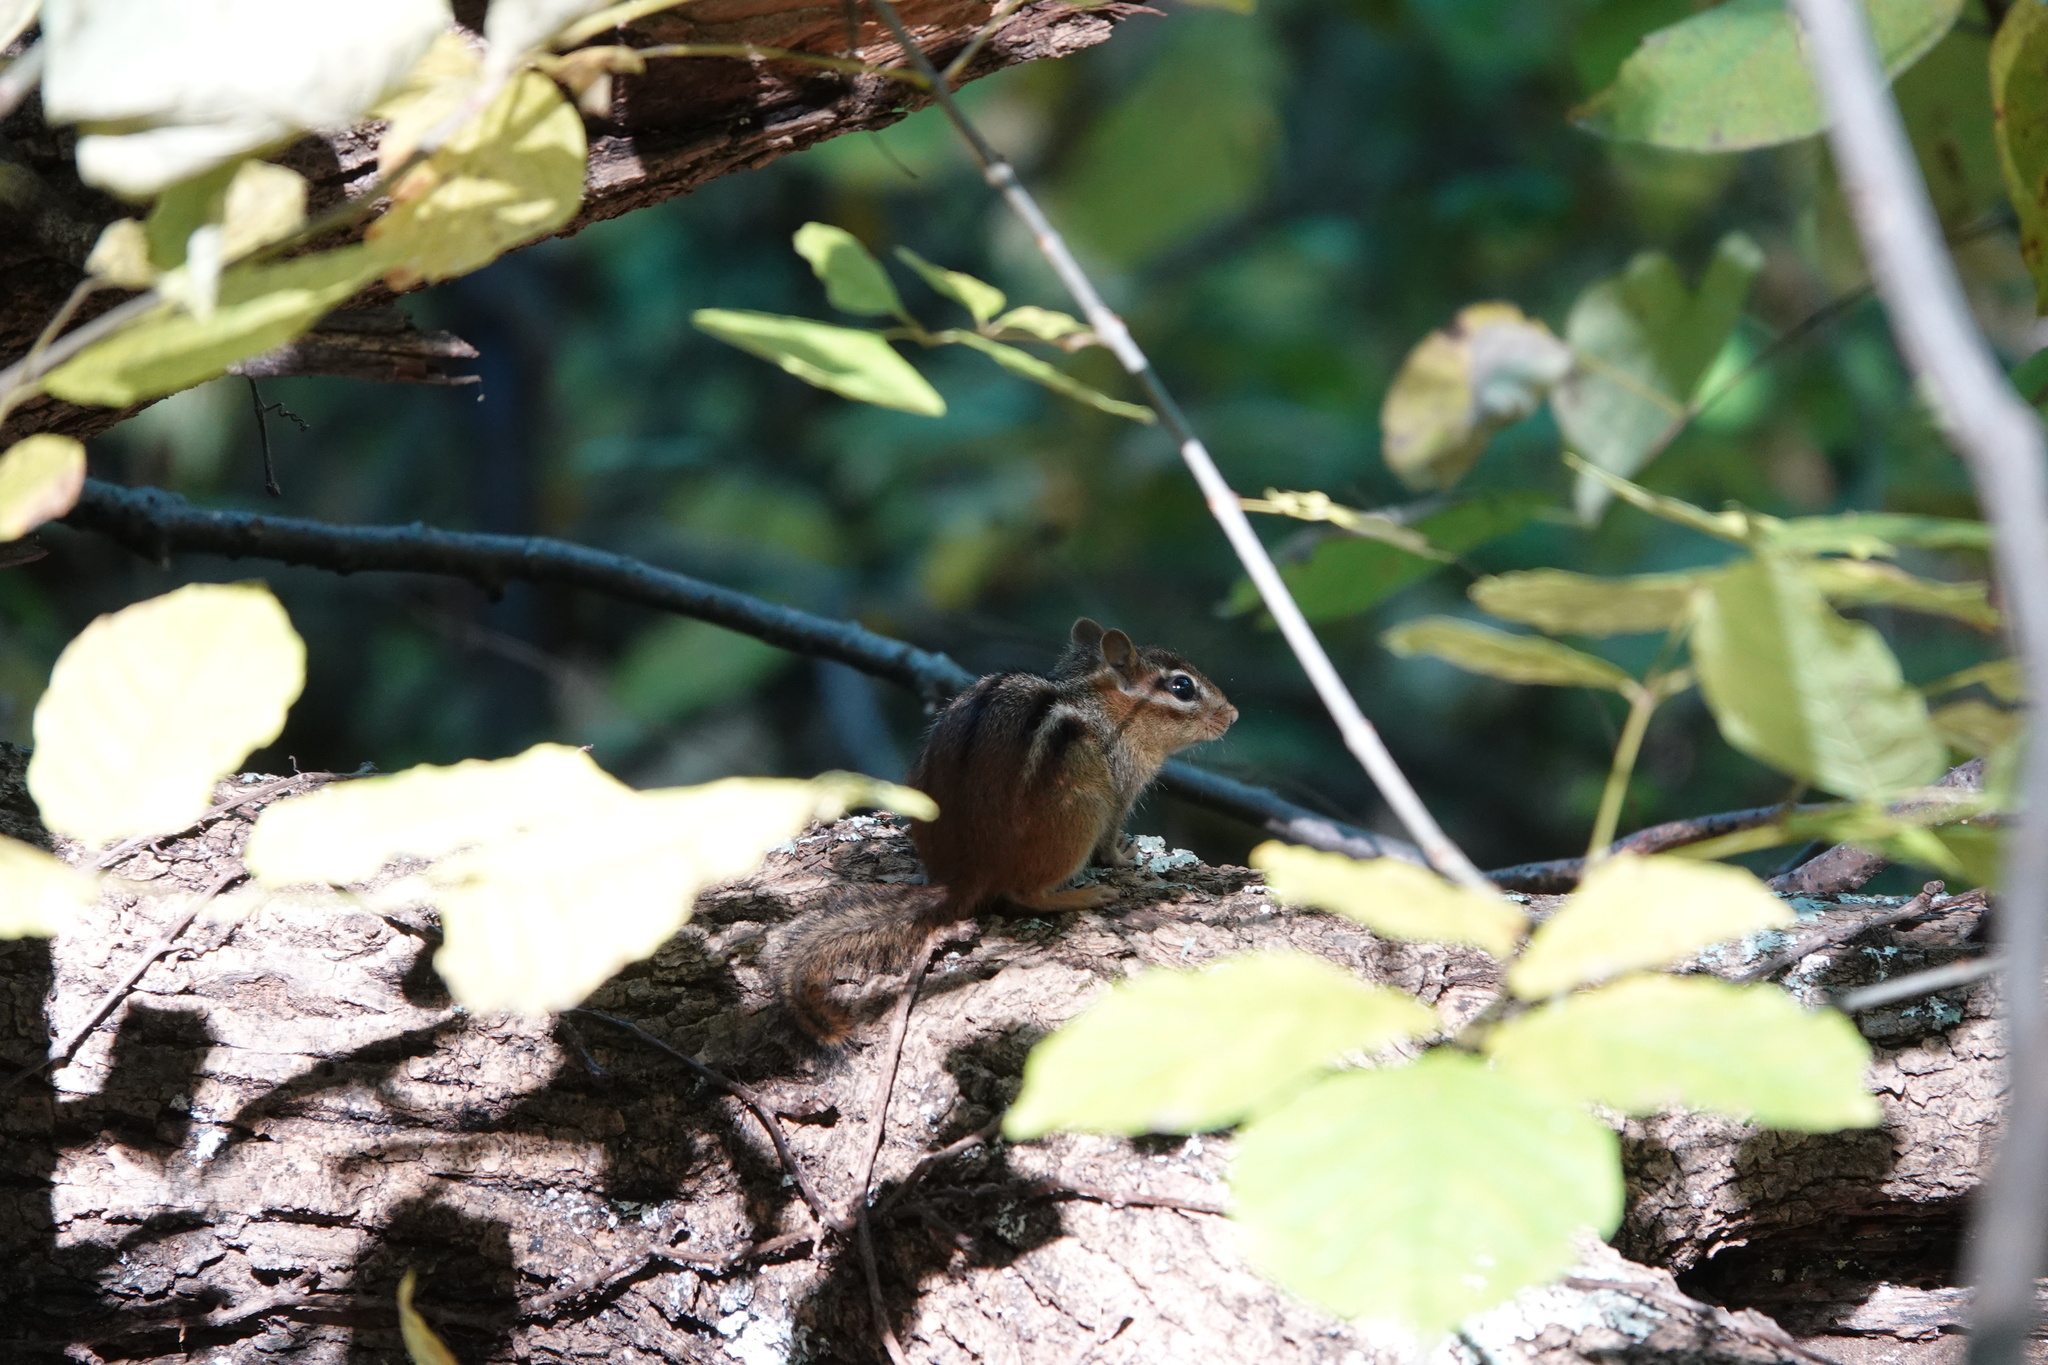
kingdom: Animalia
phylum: Chordata
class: Mammalia
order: Rodentia
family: Sciuridae
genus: Tamias
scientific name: Tamias striatus
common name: Eastern chipmunk
